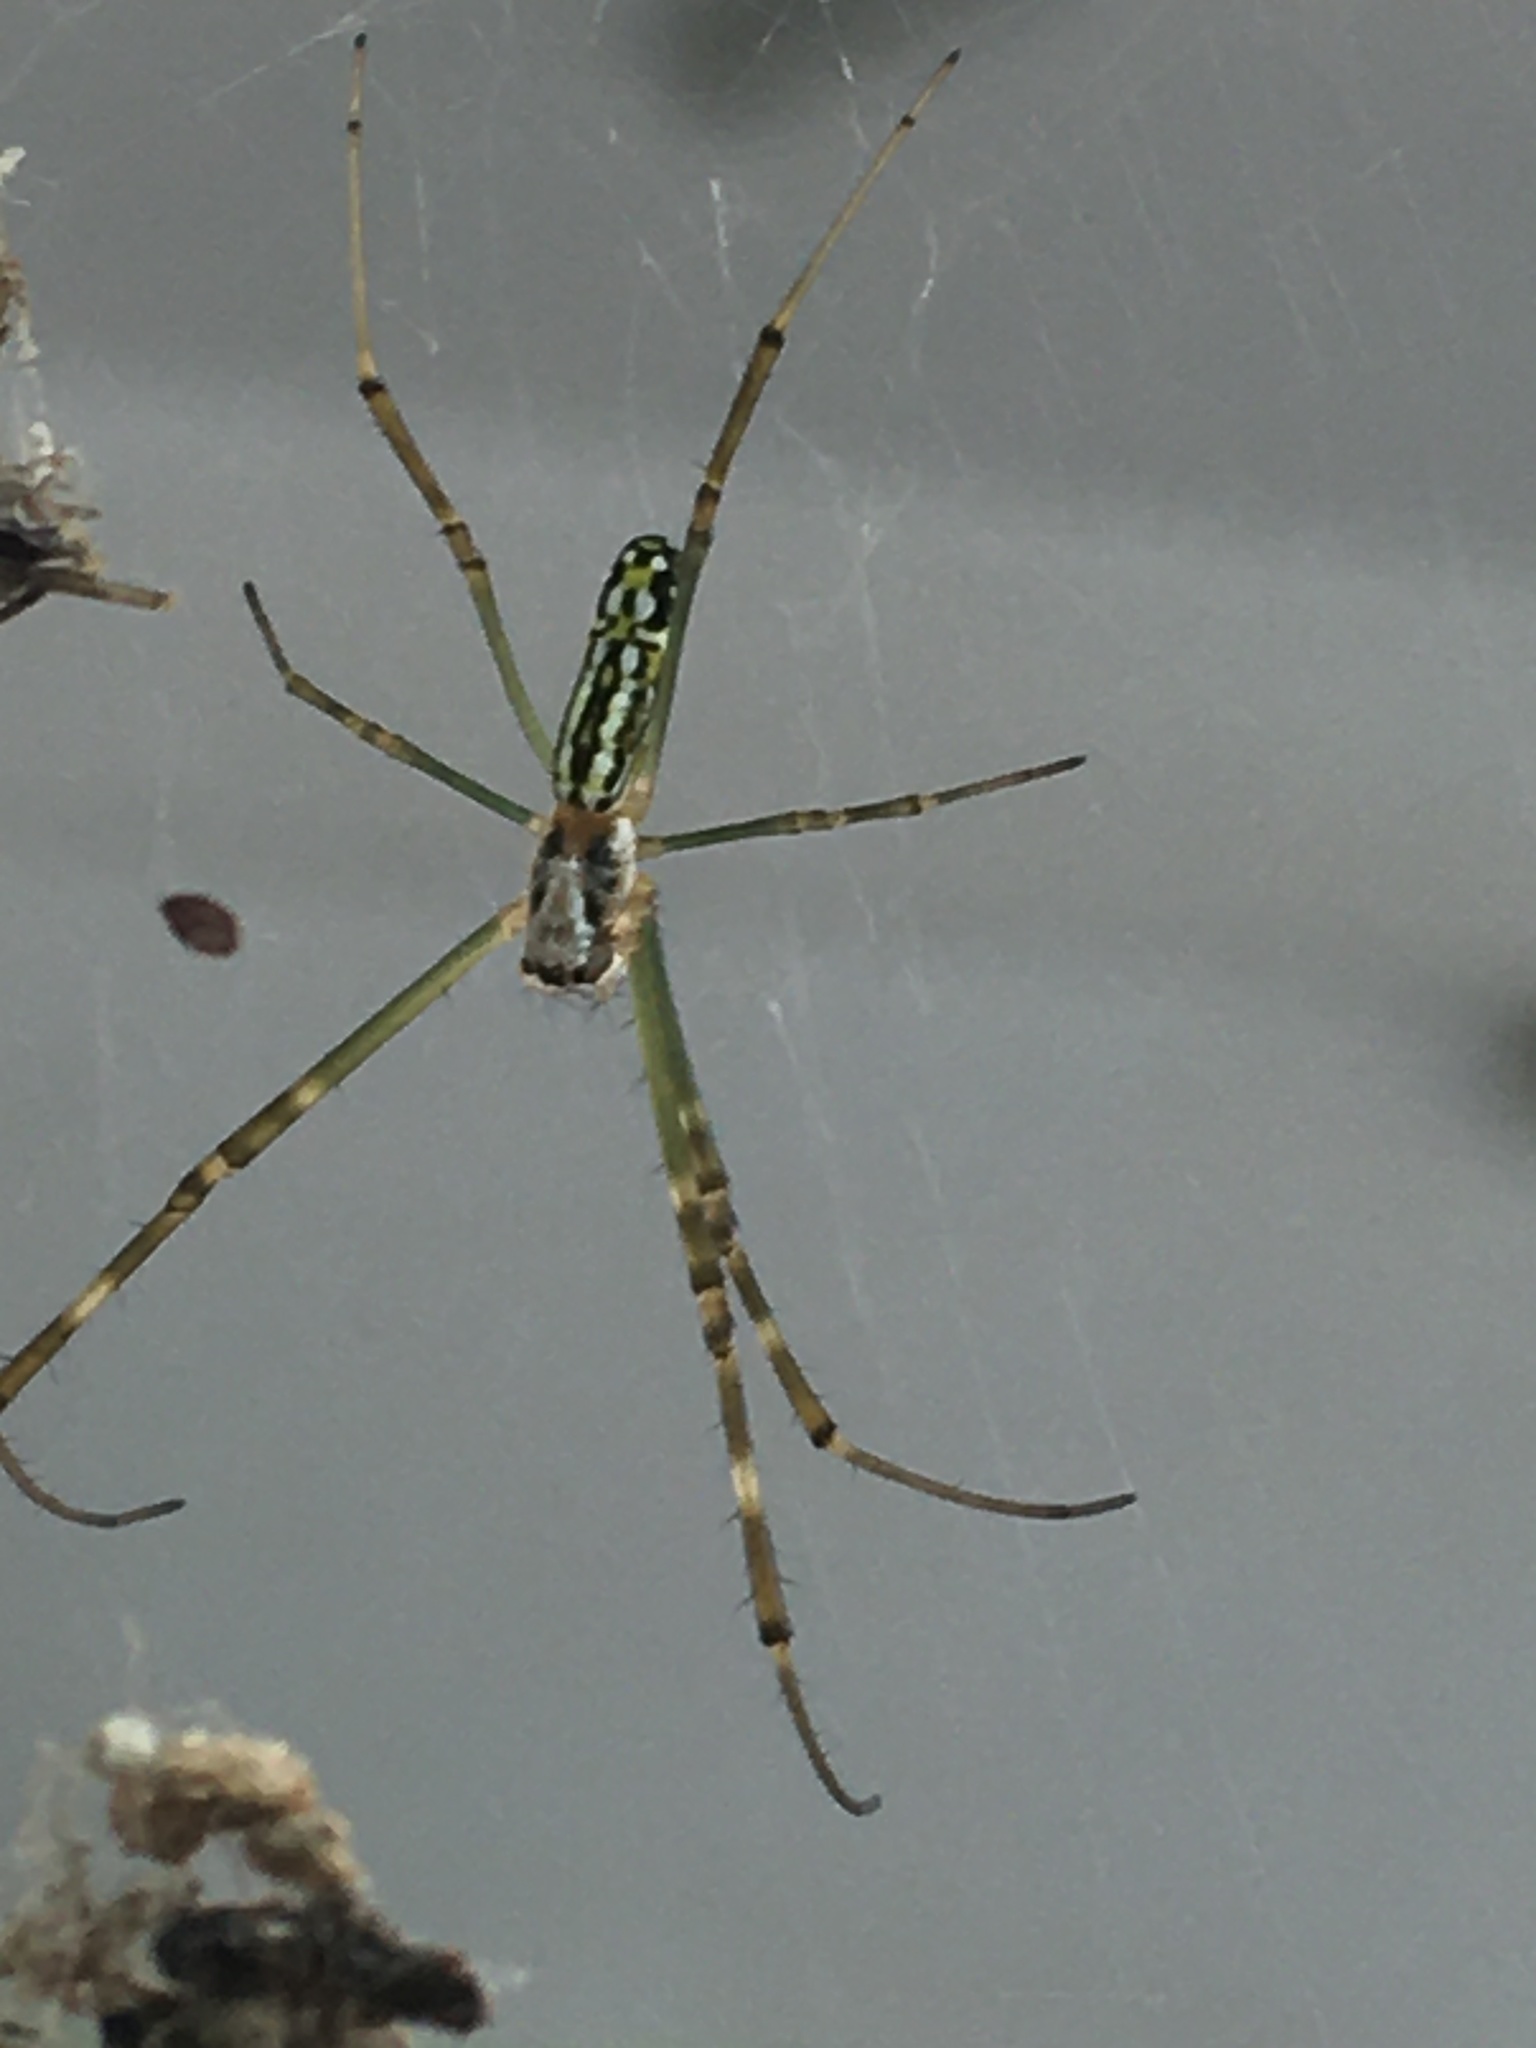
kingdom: Animalia
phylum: Arthropoda
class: Arachnida
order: Araneae
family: Araneidae
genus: Trichonephila
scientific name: Trichonephila clavata
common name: Jorō spider
